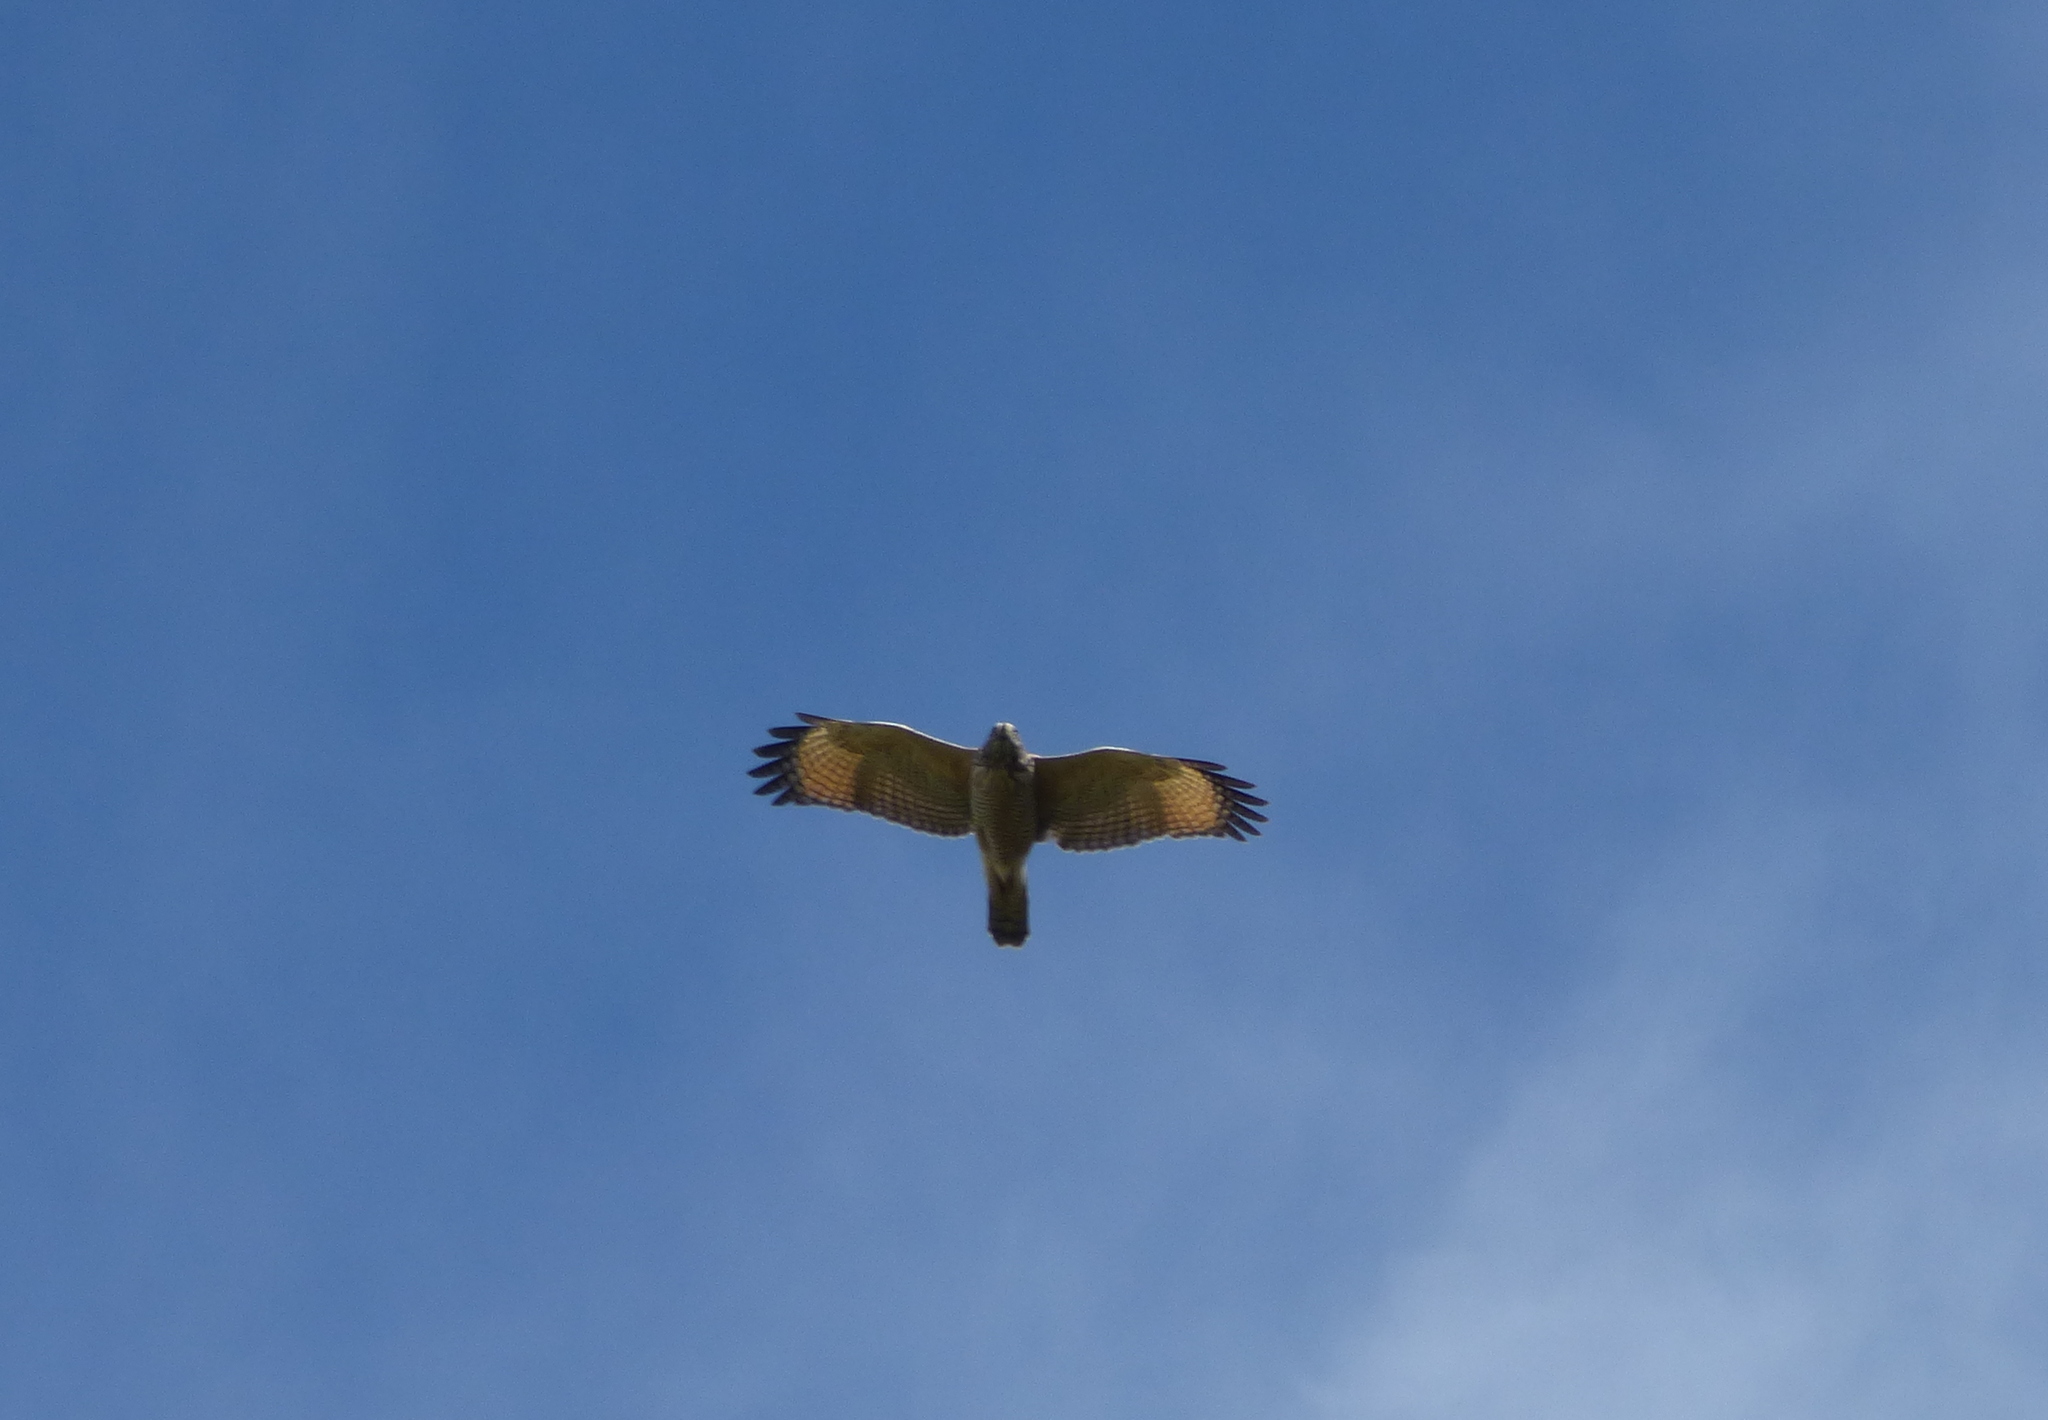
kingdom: Animalia
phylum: Chordata
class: Aves
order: Accipitriformes
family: Accipitridae
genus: Rupornis
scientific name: Rupornis magnirostris
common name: Roadside hawk
